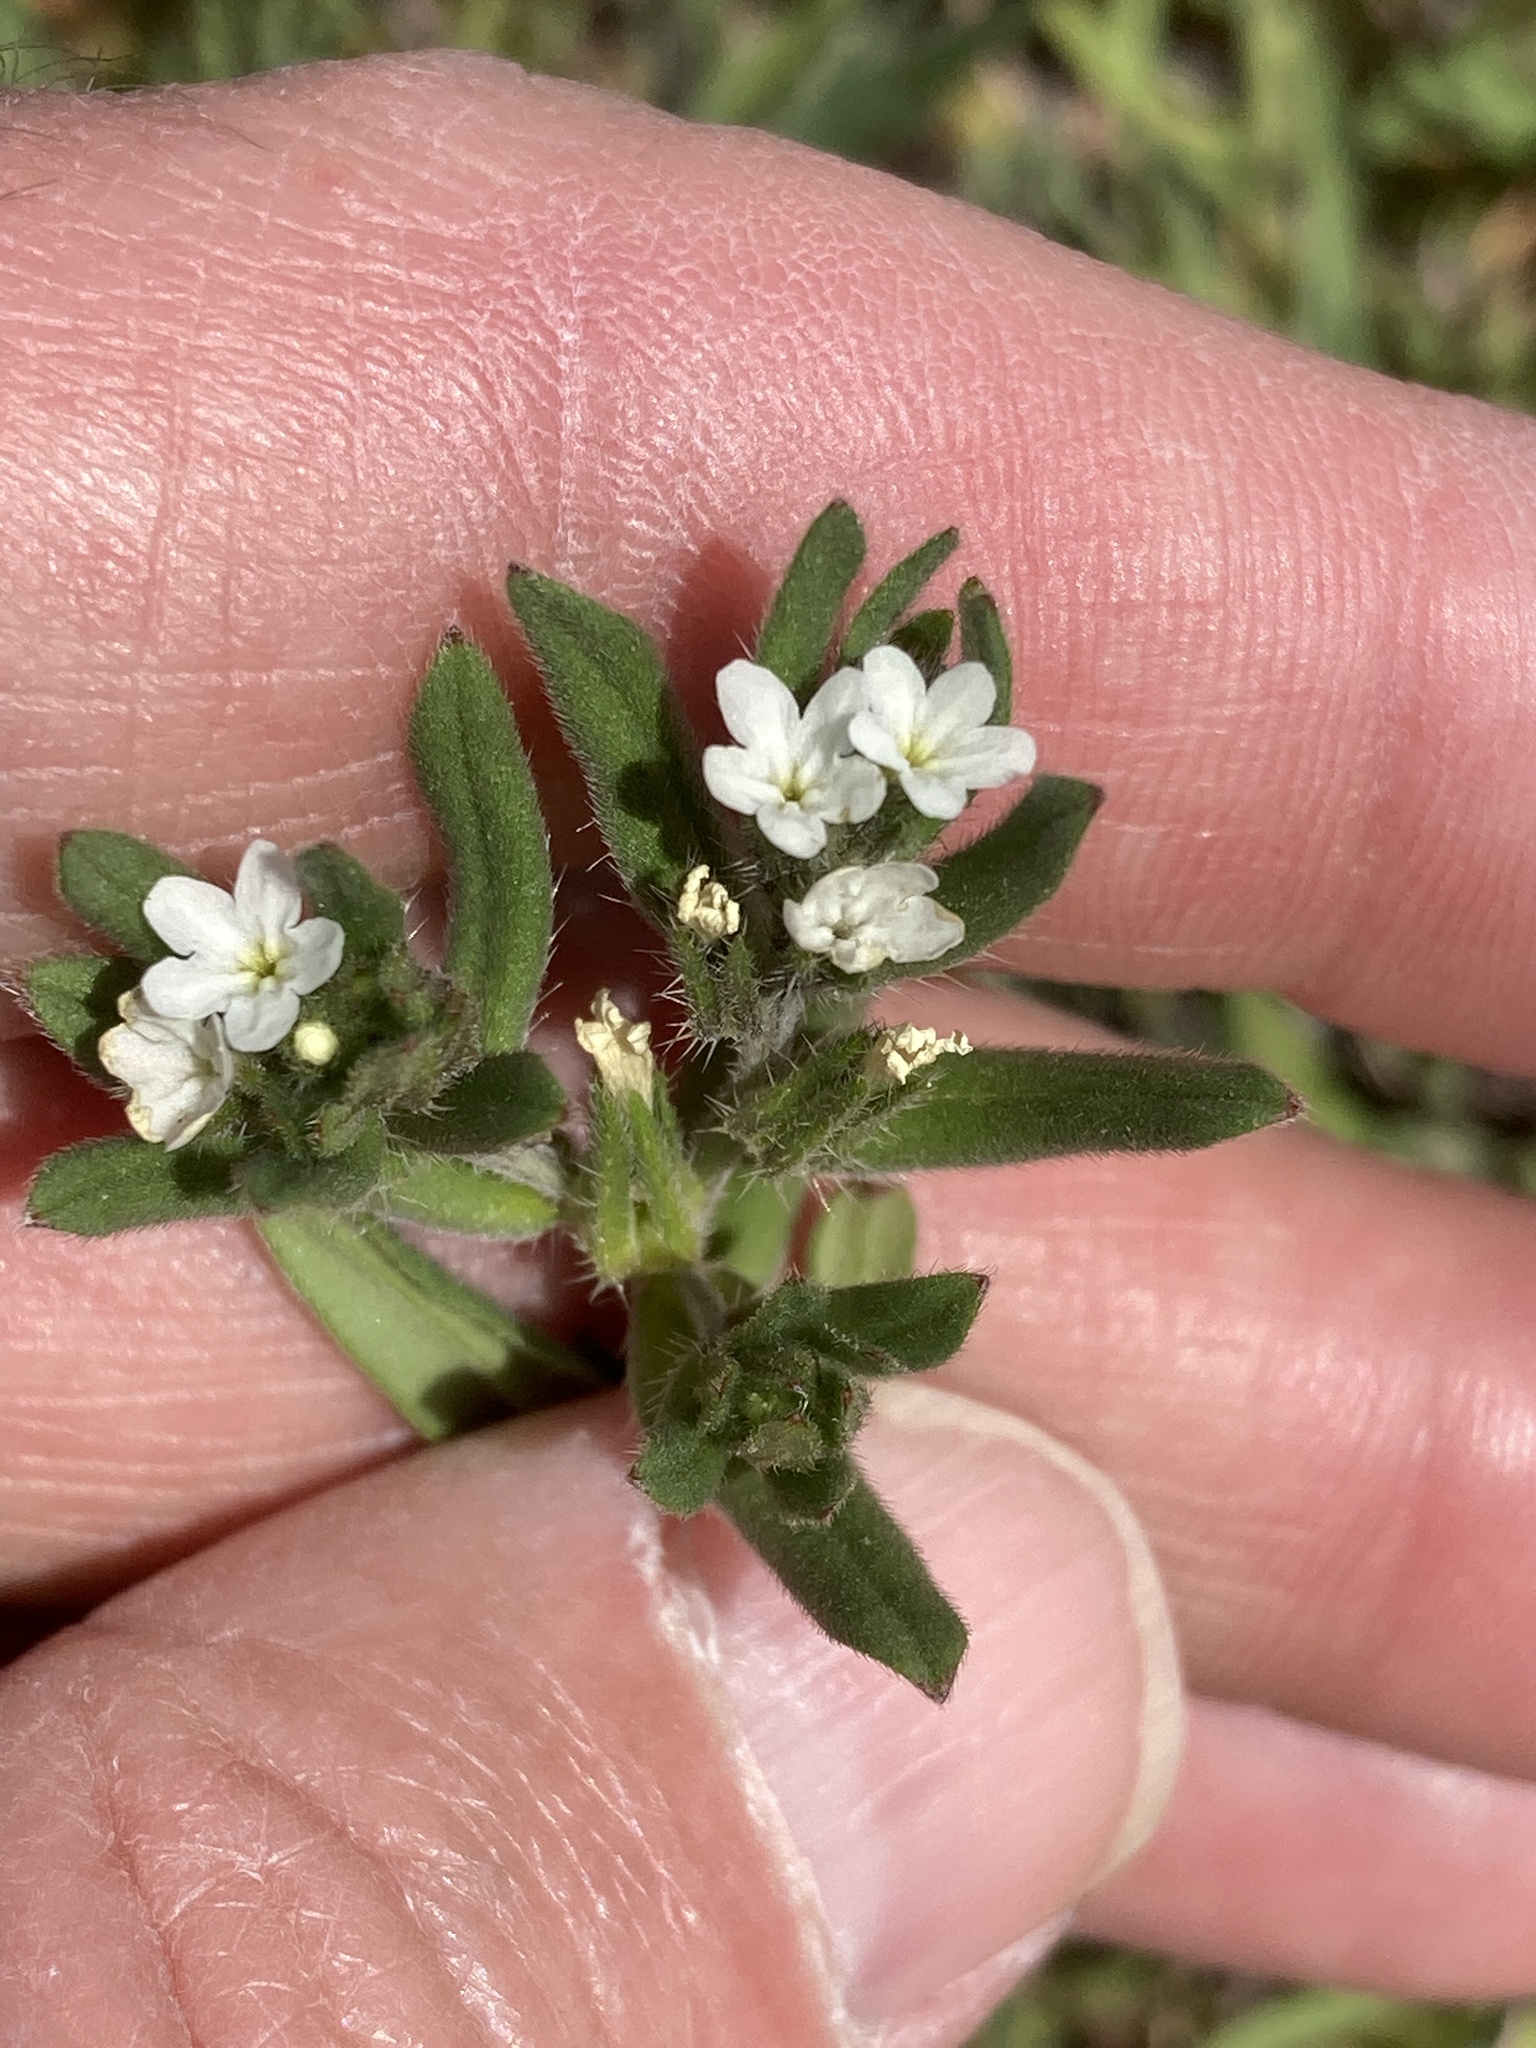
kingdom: Plantae
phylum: Tracheophyta
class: Magnoliopsida
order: Boraginales
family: Boraginaceae
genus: Buglossoides
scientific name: Buglossoides arvensis
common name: Corn gromwell
